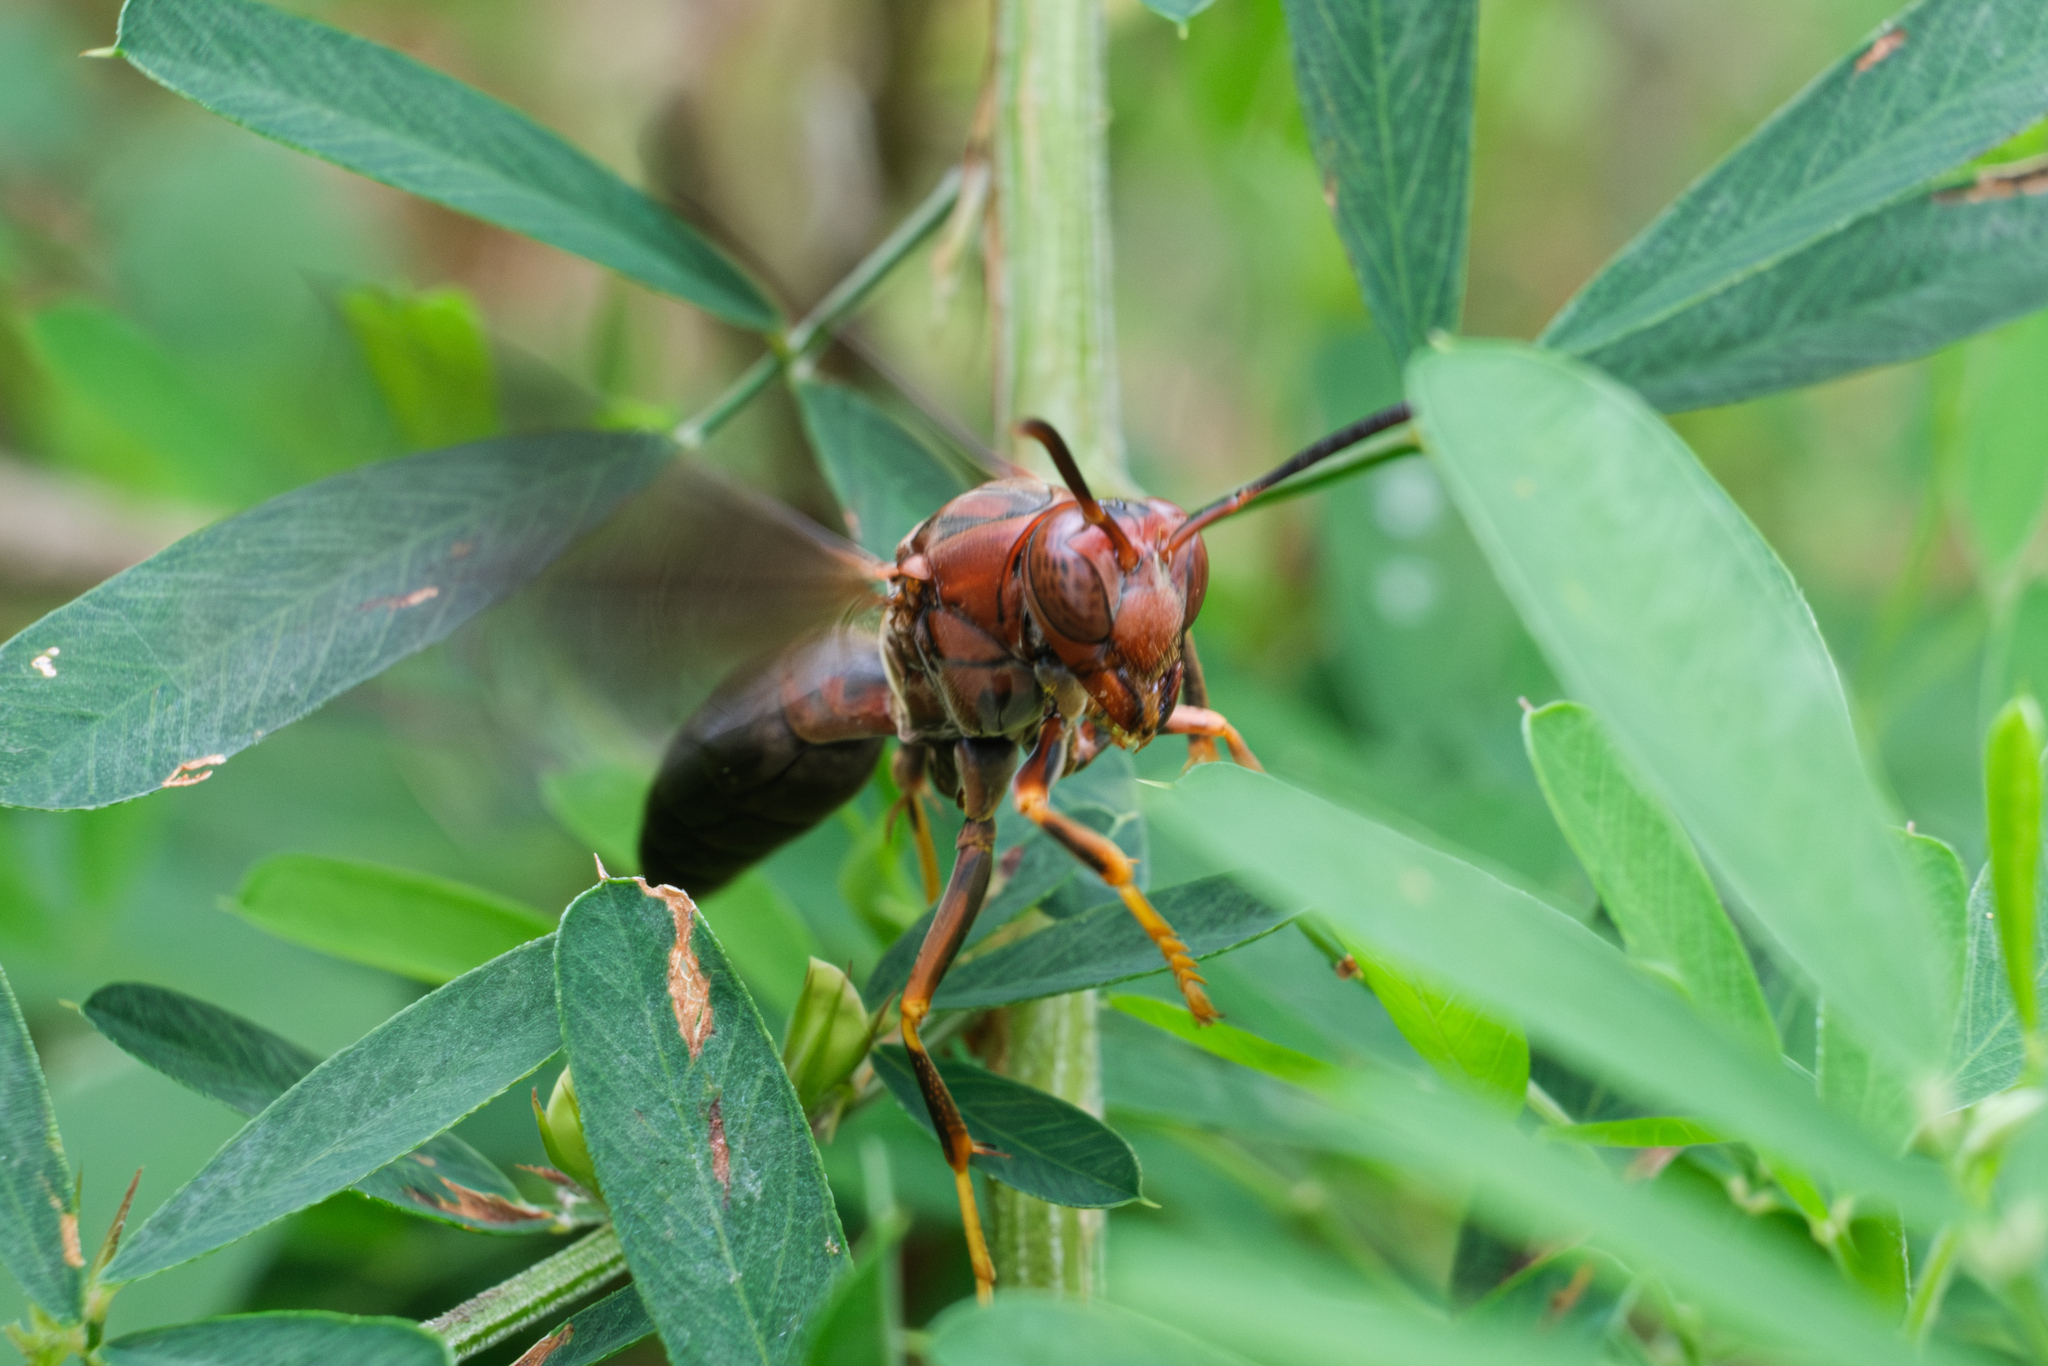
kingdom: Animalia
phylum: Arthropoda
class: Insecta
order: Hymenoptera
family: Eumenidae
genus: Polistes
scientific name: Polistes metricus
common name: Metric paper wasp
